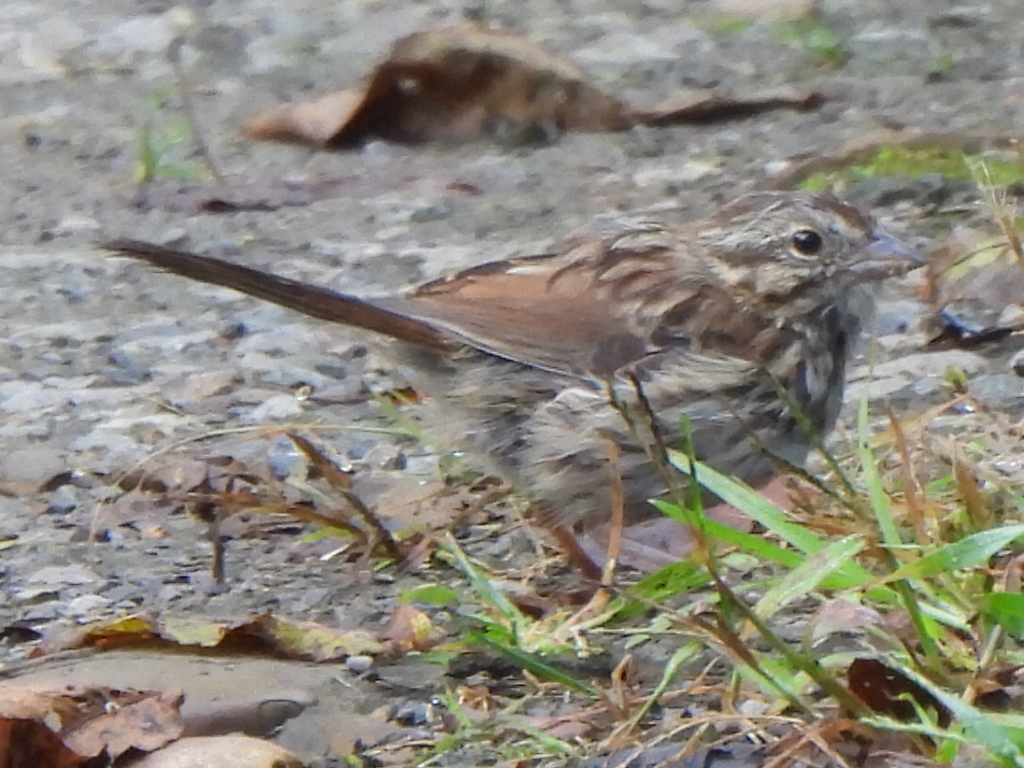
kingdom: Animalia
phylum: Chordata
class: Aves
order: Passeriformes
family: Passerellidae
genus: Melospiza
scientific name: Melospiza melodia
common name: Song sparrow
